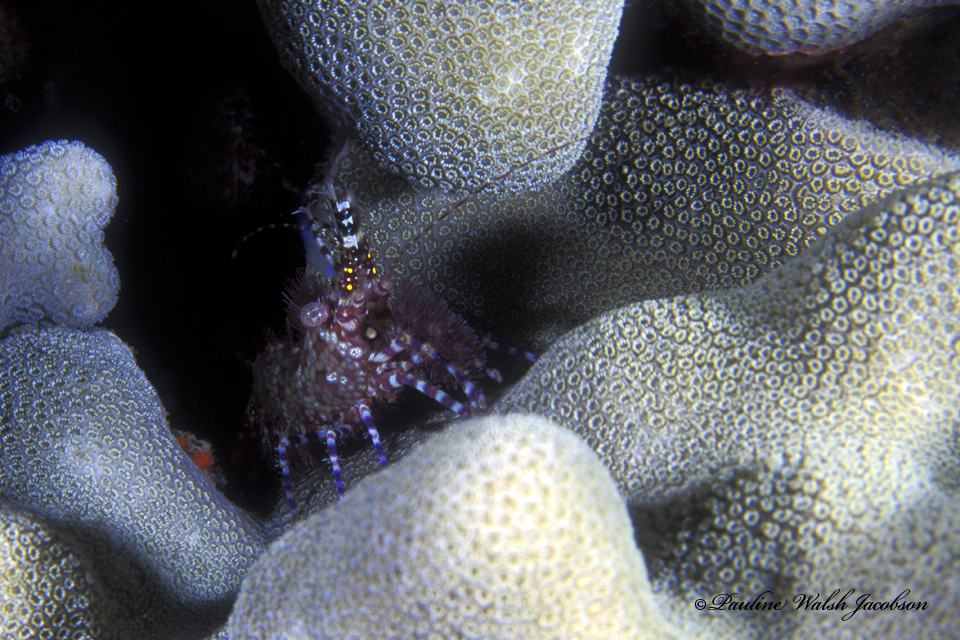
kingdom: Animalia
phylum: Arthropoda
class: Malacostraca
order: Decapoda
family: Hippolytidae
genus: Saron
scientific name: Saron marmoratus
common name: Common marble shrimp
